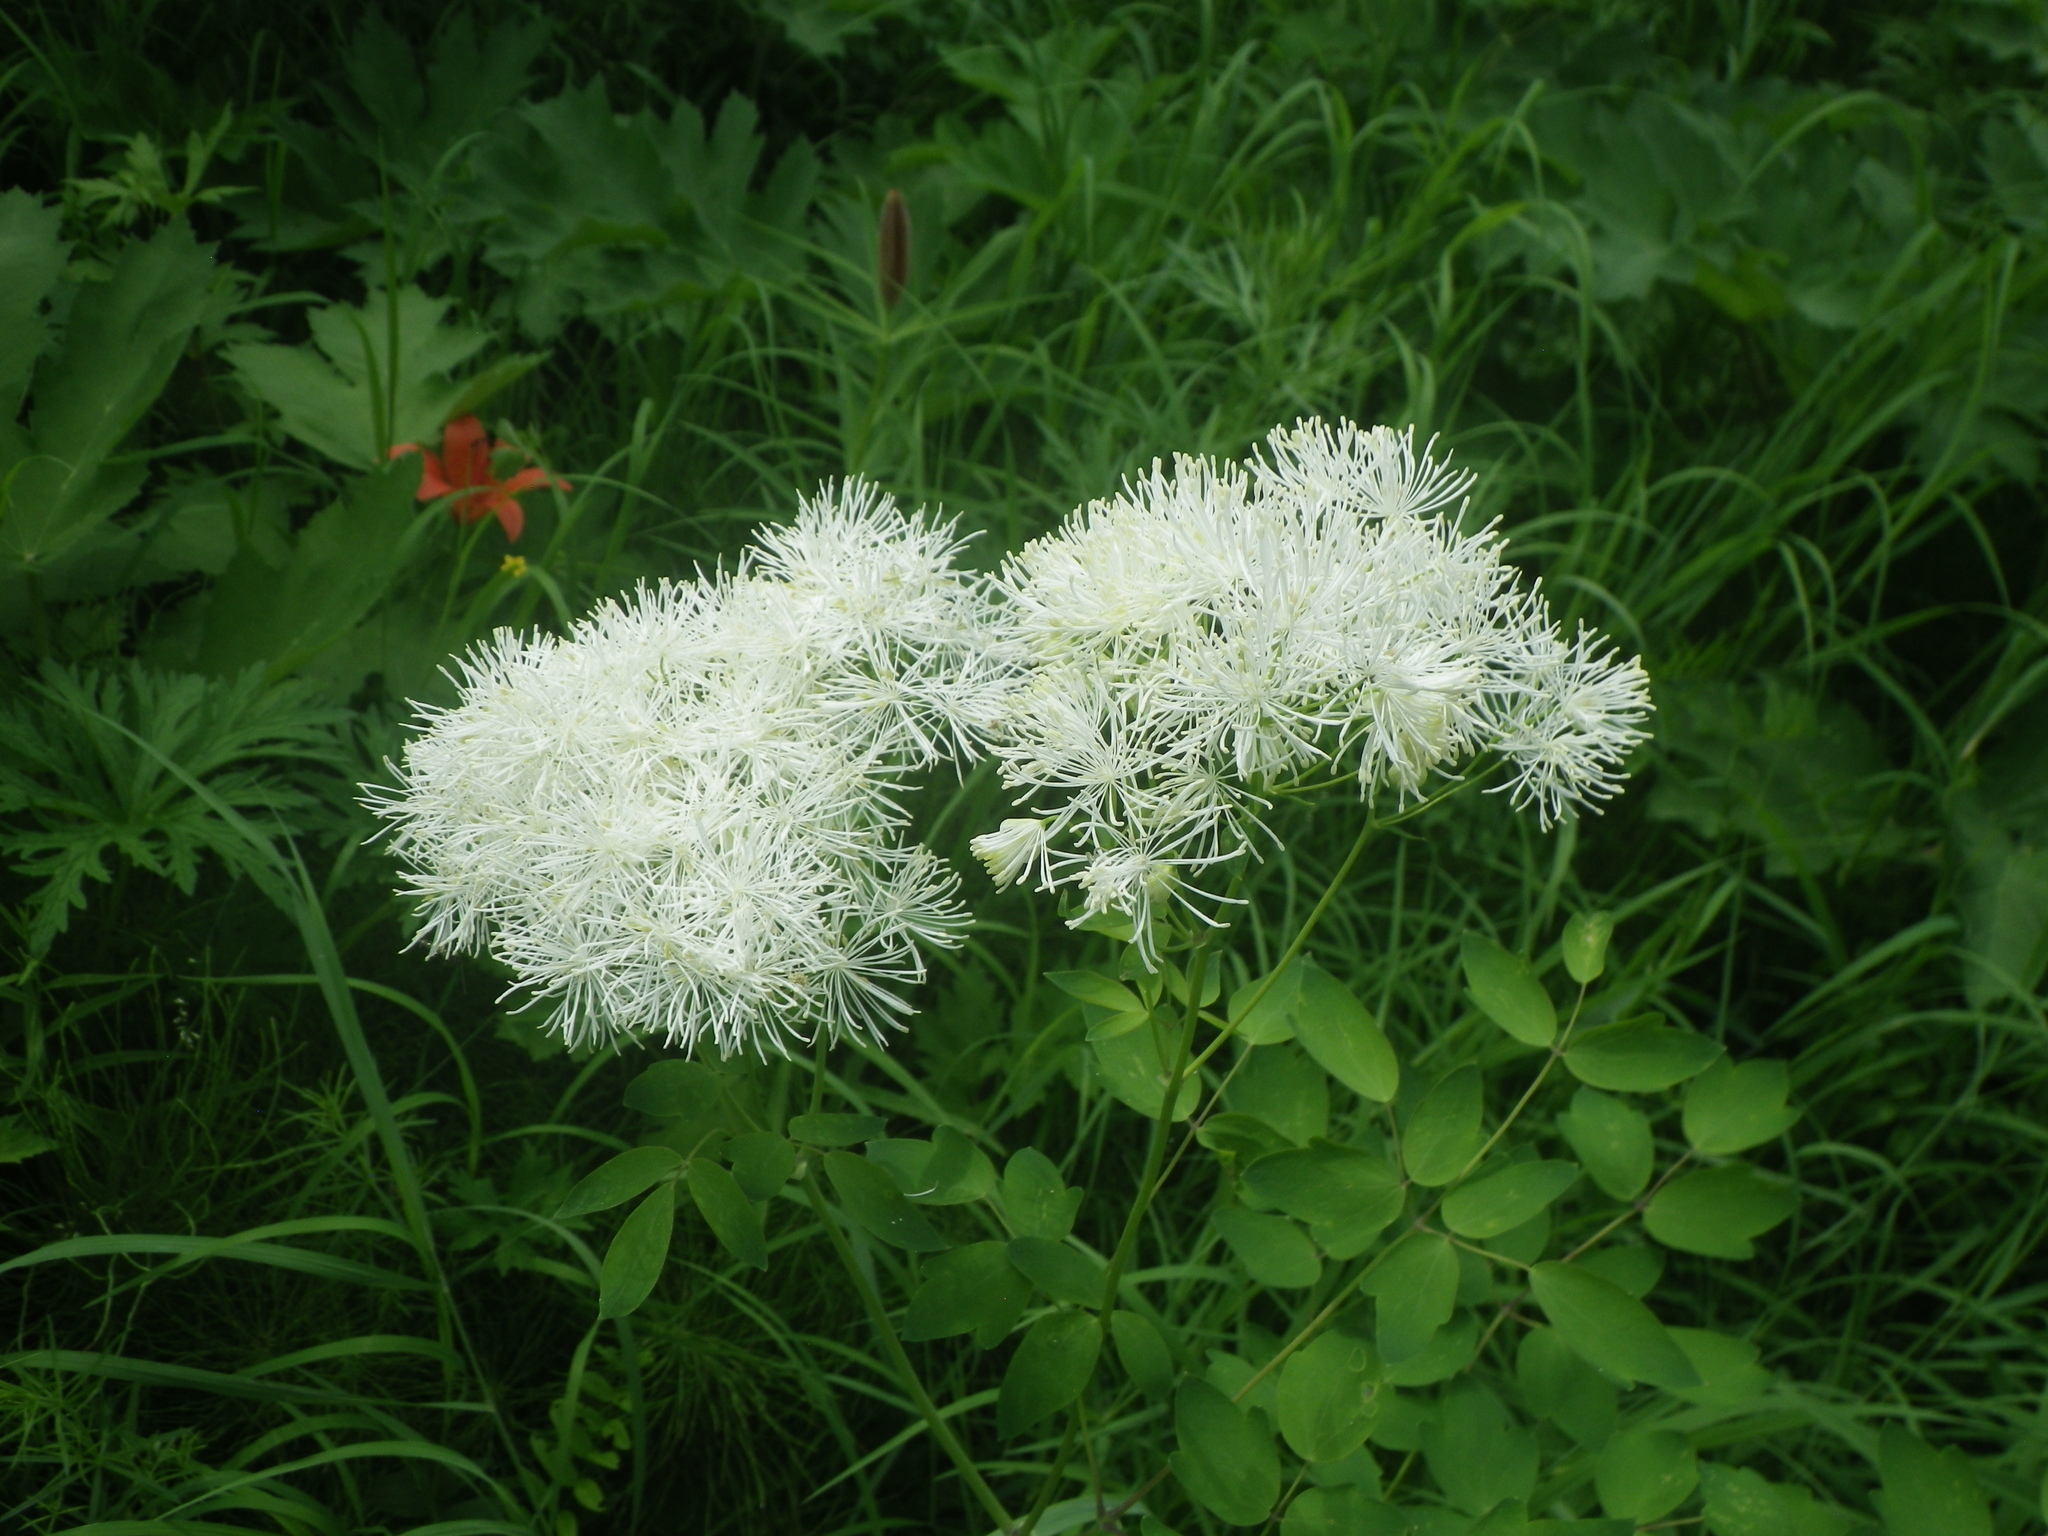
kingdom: Plantae
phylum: Tracheophyta
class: Magnoliopsida
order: Ranunculales
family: Ranunculaceae
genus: Thalictrum
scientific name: Thalictrum aquilegiifolium
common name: French meadow-rue
